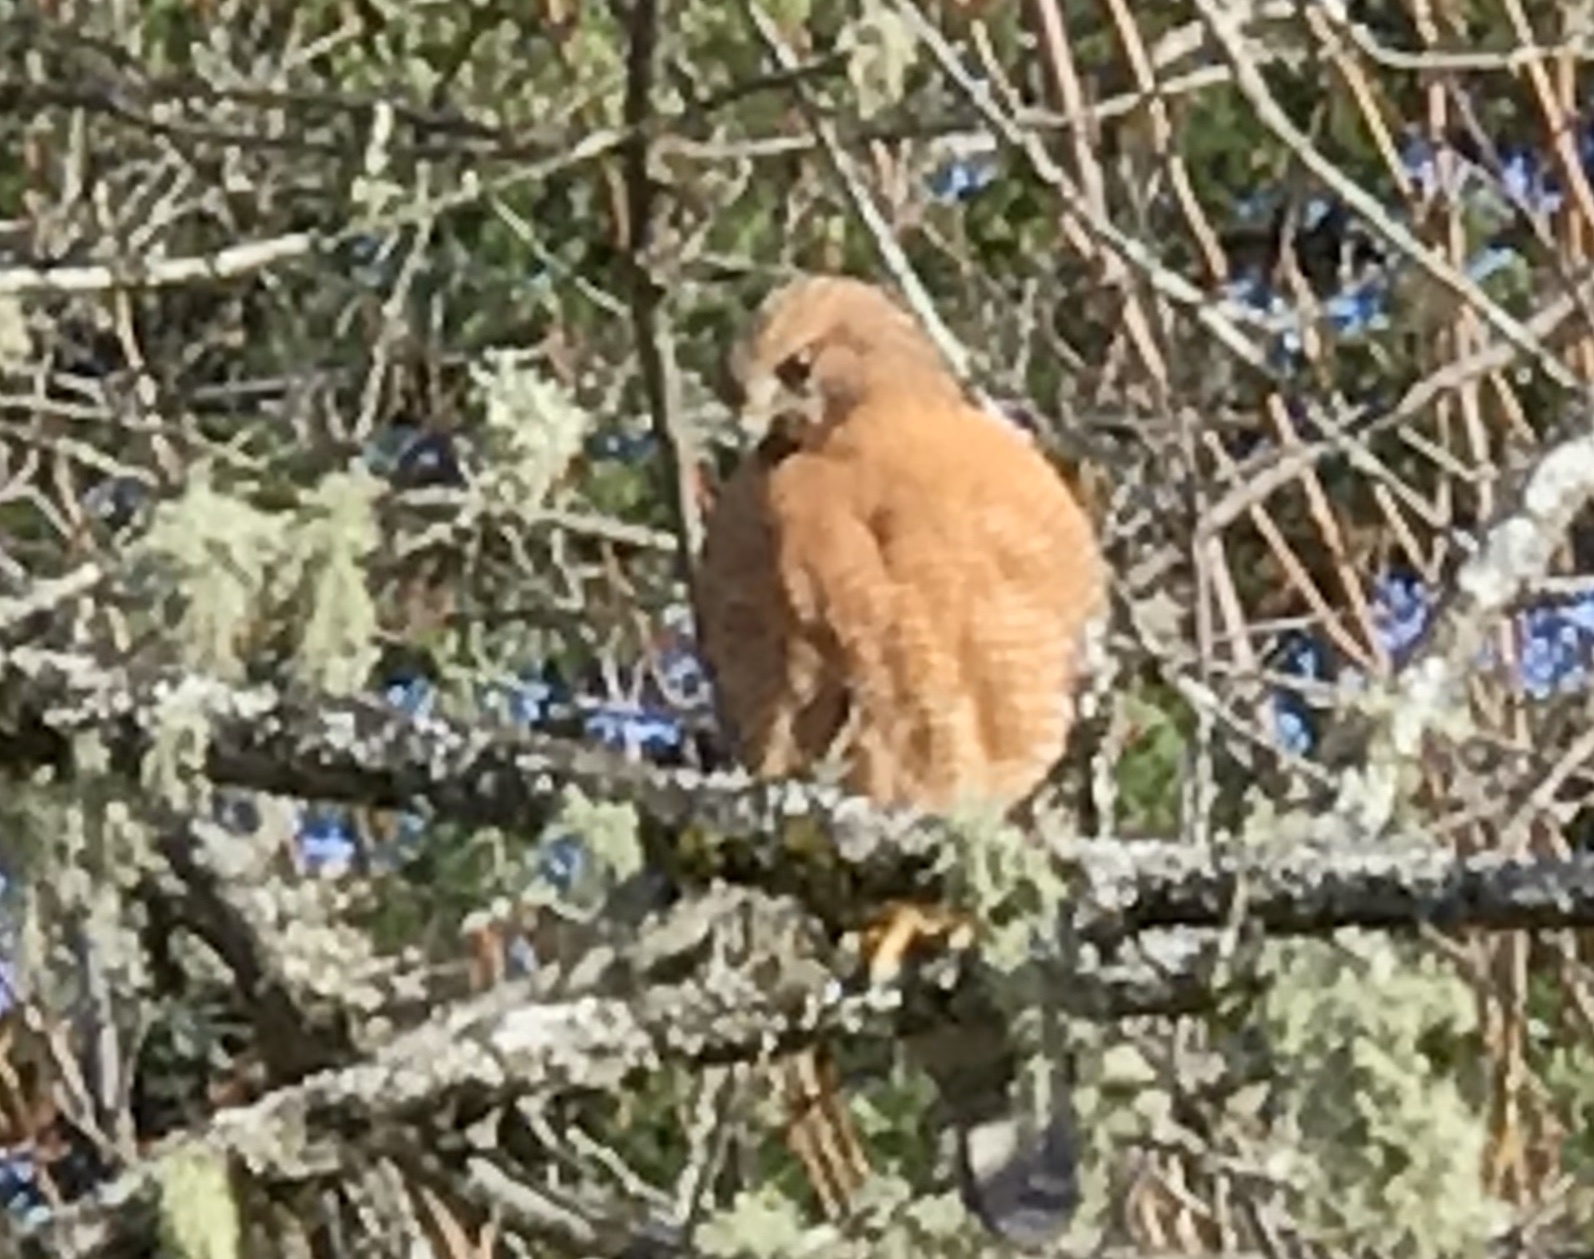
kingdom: Animalia
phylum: Chordata
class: Aves
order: Accipitriformes
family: Accipitridae
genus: Buteo
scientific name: Buteo lineatus
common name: Red-shouldered hawk
